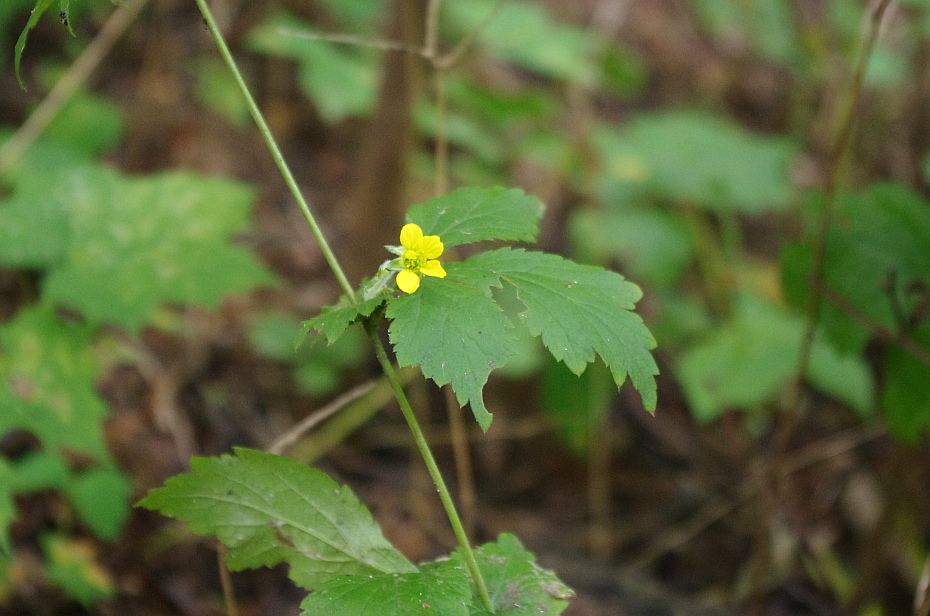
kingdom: Plantae
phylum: Tracheophyta
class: Magnoliopsida
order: Rosales
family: Rosaceae
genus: Geum
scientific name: Geum urbanum
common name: Wood avens
